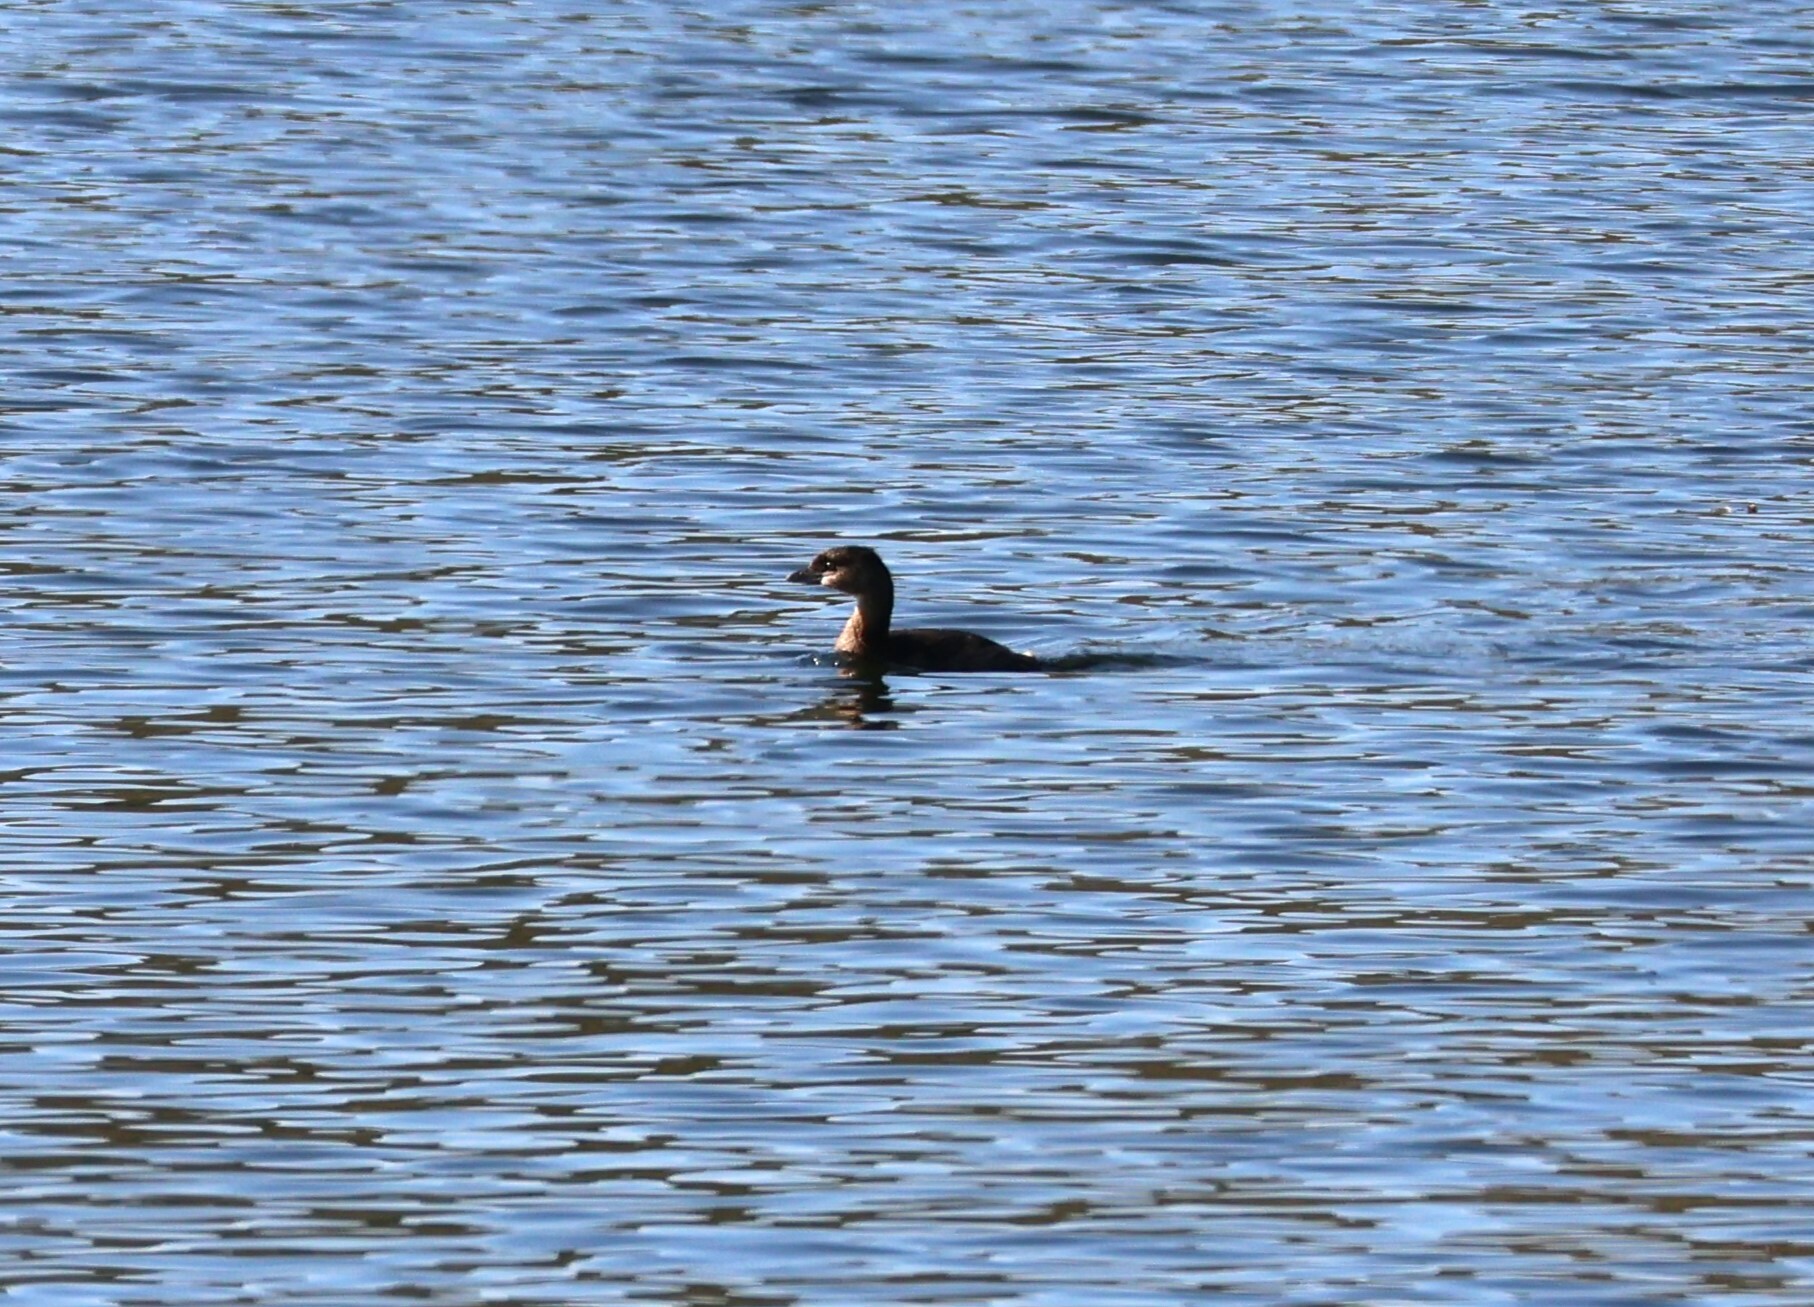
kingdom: Animalia
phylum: Chordata
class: Aves
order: Podicipediformes
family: Podicipedidae
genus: Podilymbus
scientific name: Podilymbus podiceps
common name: Pied-billed grebe
